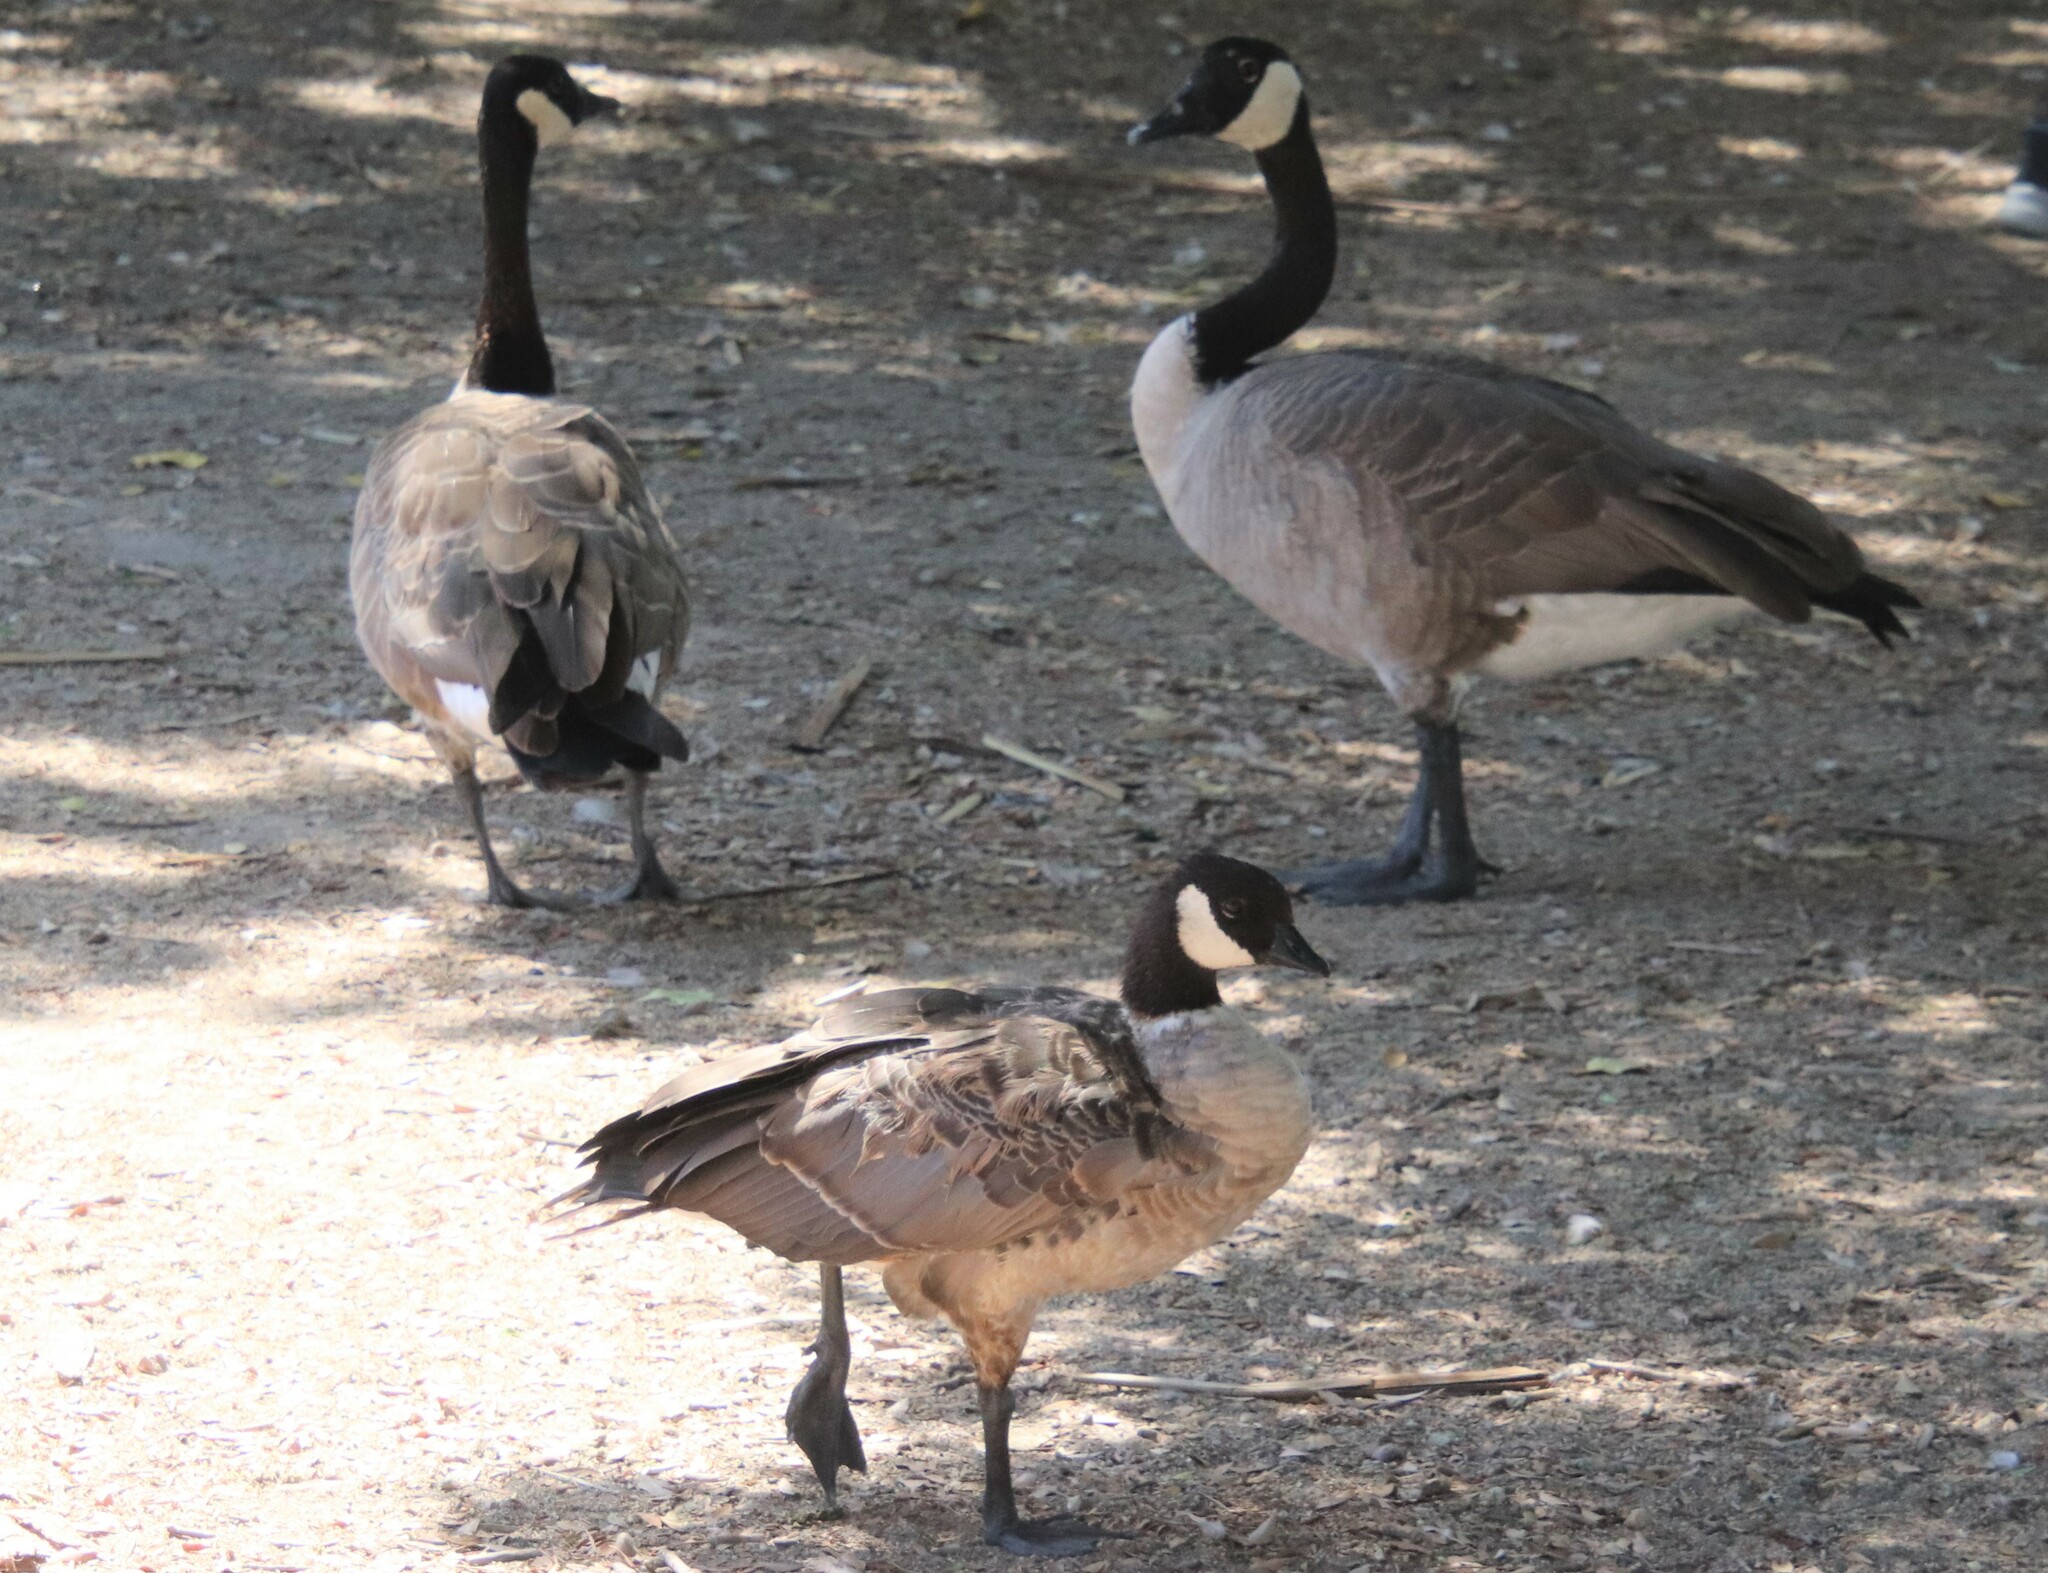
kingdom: Animalia
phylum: Chordata
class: Aves
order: Anseriformes
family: Anatidae
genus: Branta
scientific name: Branta hutchinsii
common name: Cackling goose
